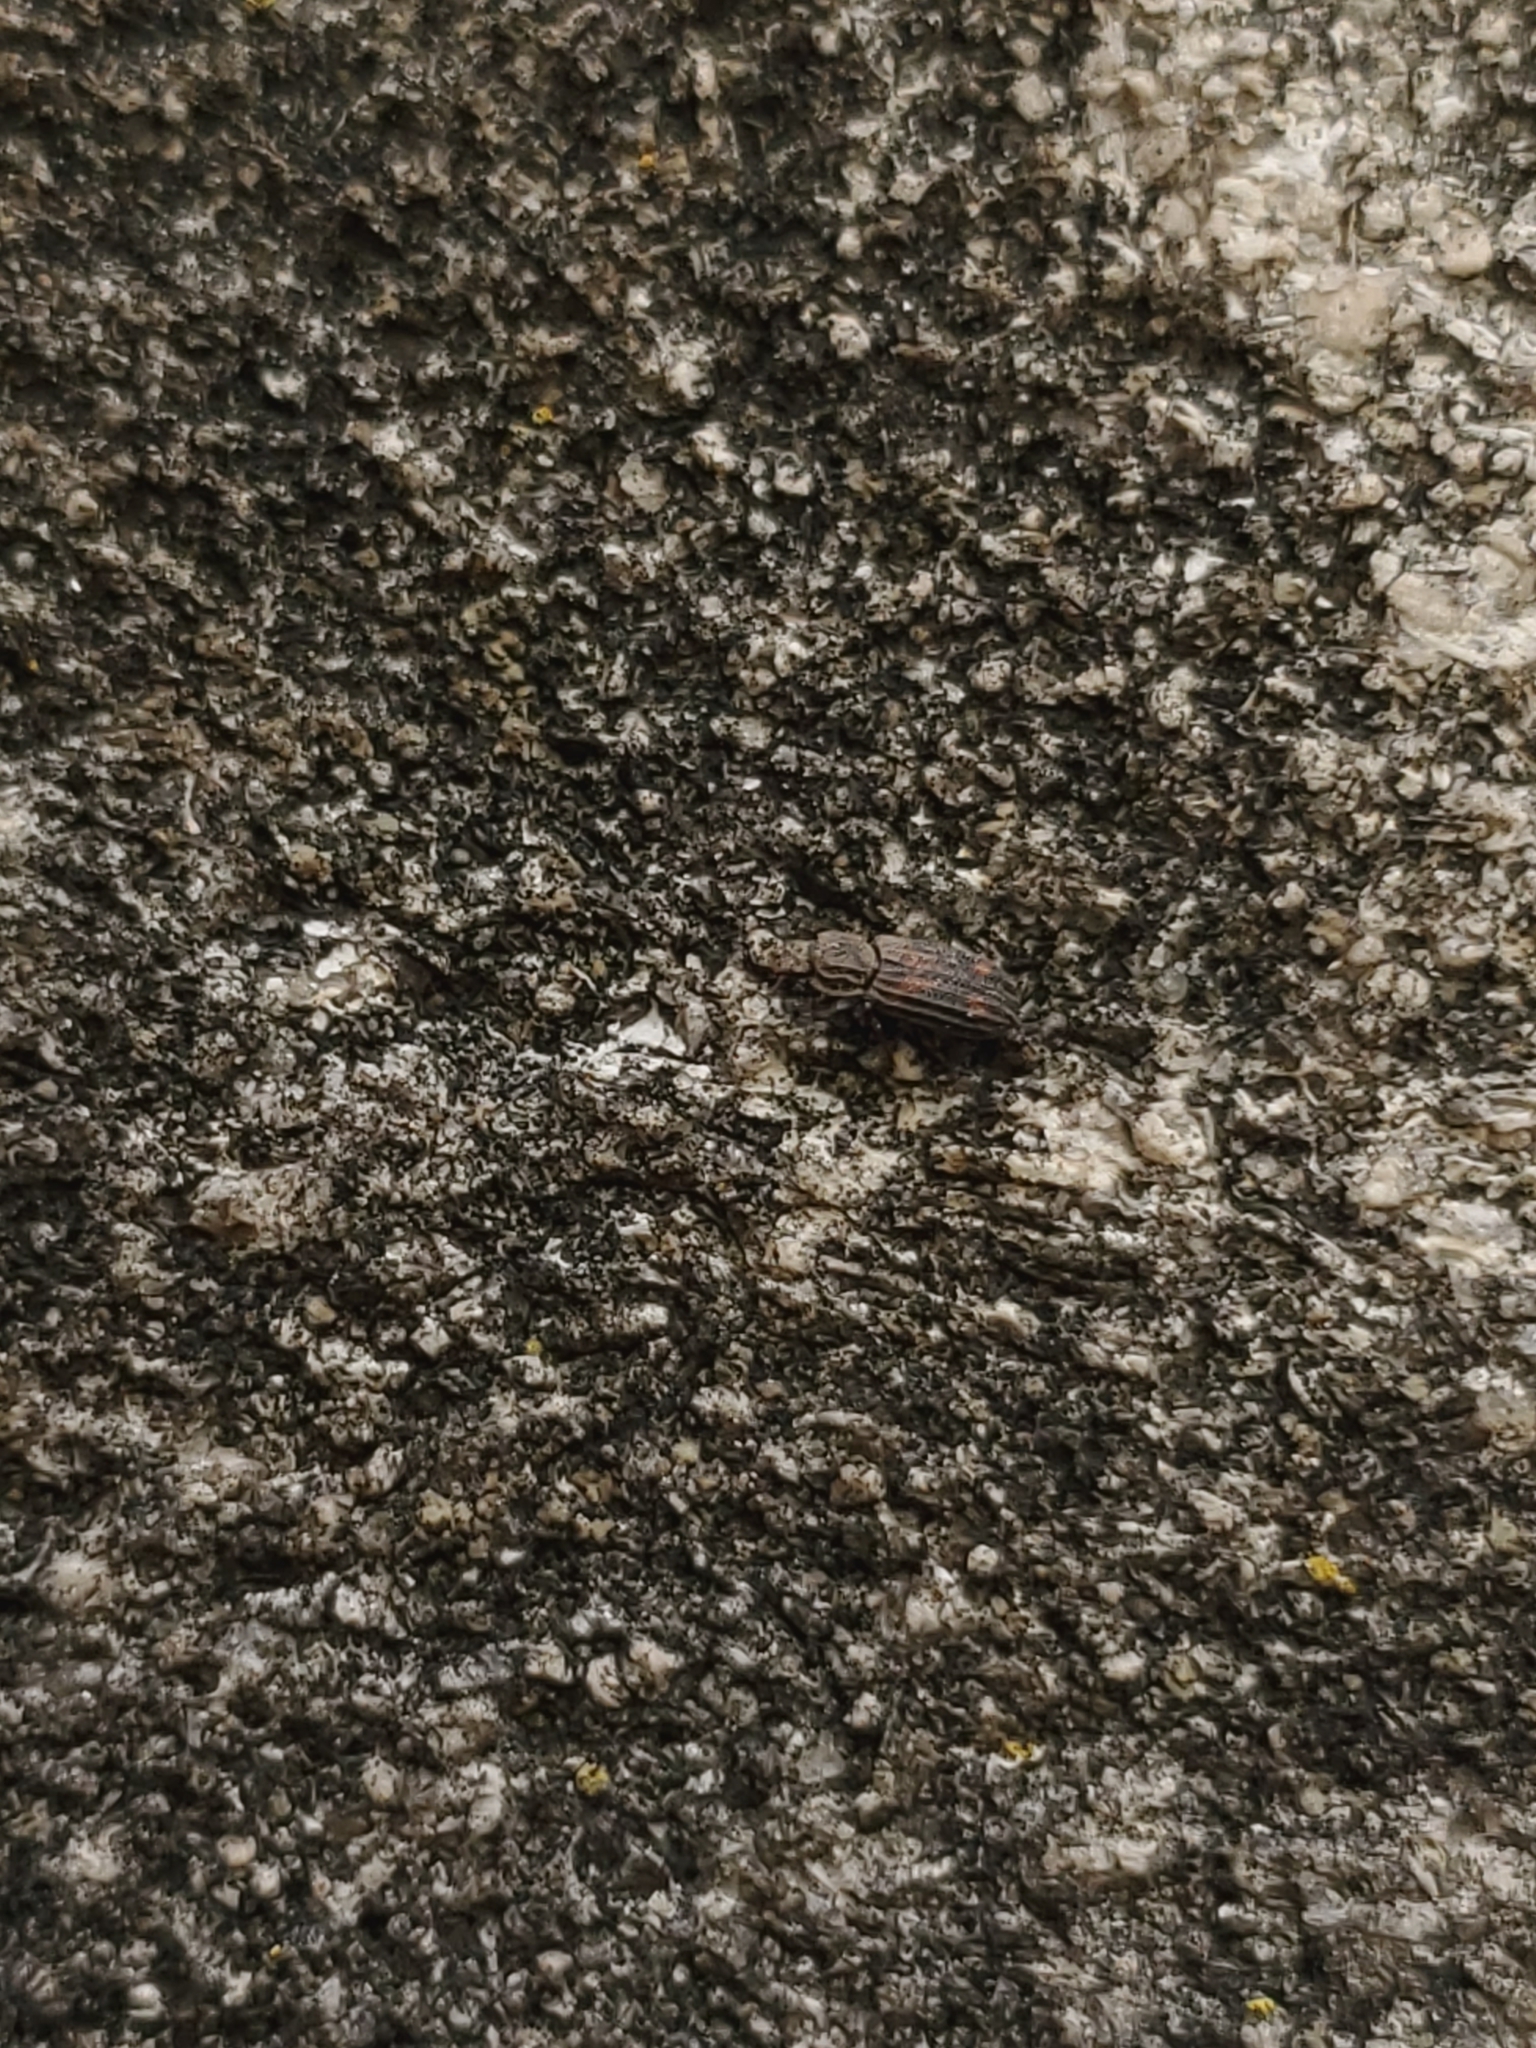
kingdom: Animalia
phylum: Arthropoda
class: Insecta
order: Coleoptera
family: Zopheridae
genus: Bitoma
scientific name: Bitoma quadriguttata
